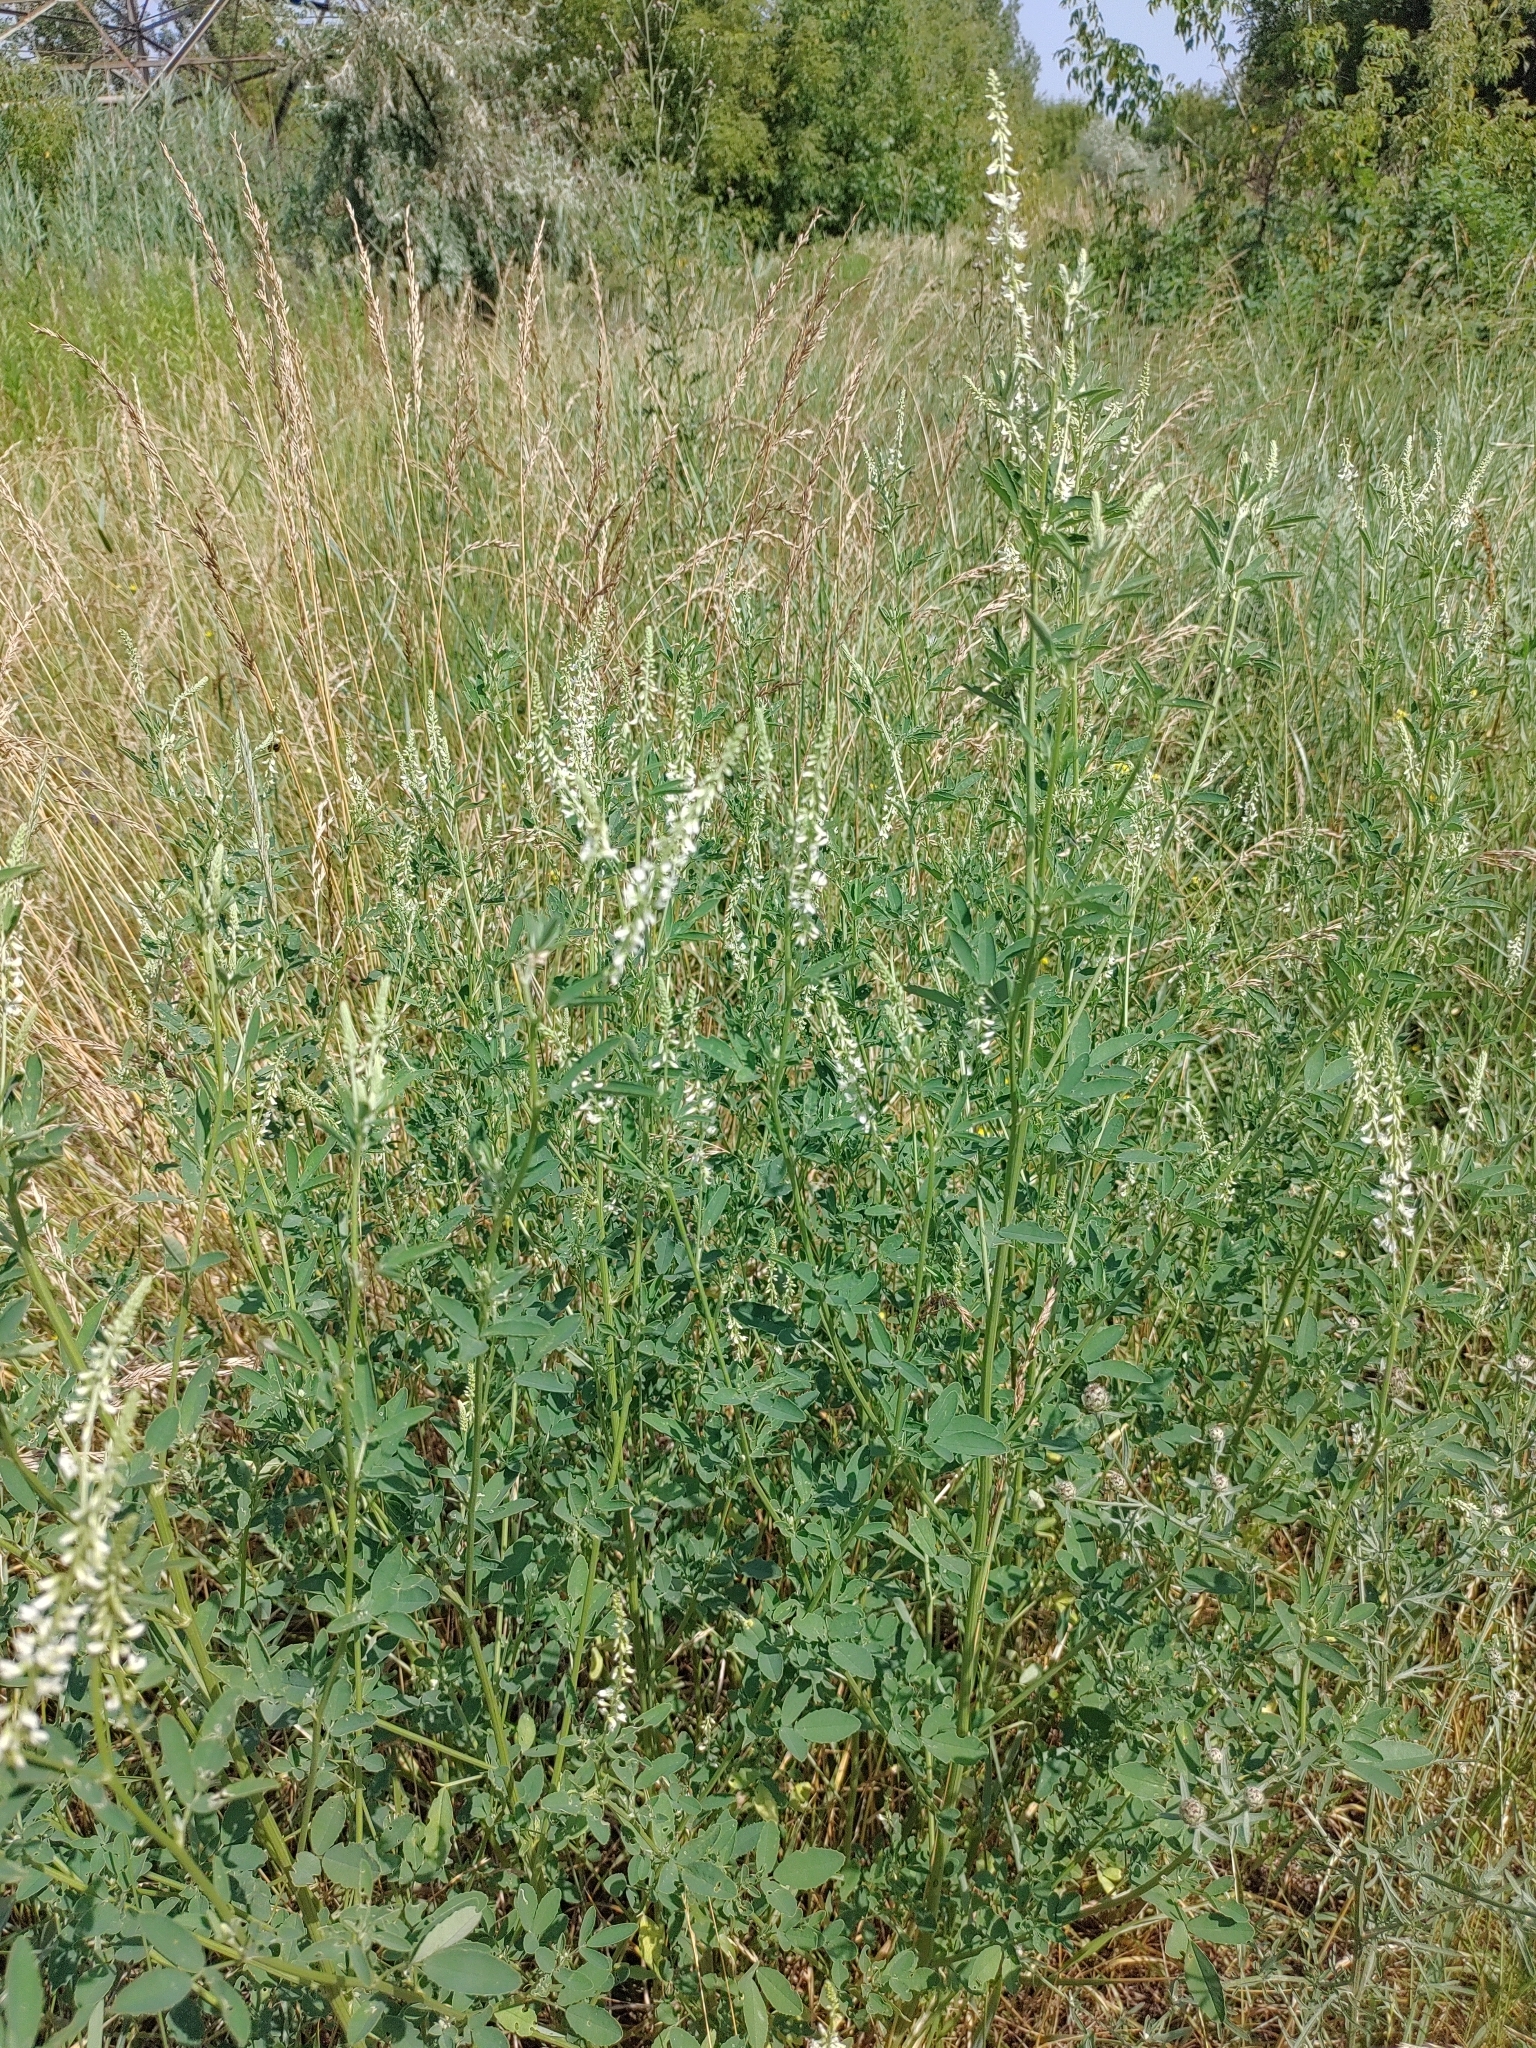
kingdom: Plantae
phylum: Tracheophyta
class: Magnoliopsida
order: Fabales
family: Fabaceae
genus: Melilotus
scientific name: Melilotus albus
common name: White melilot
